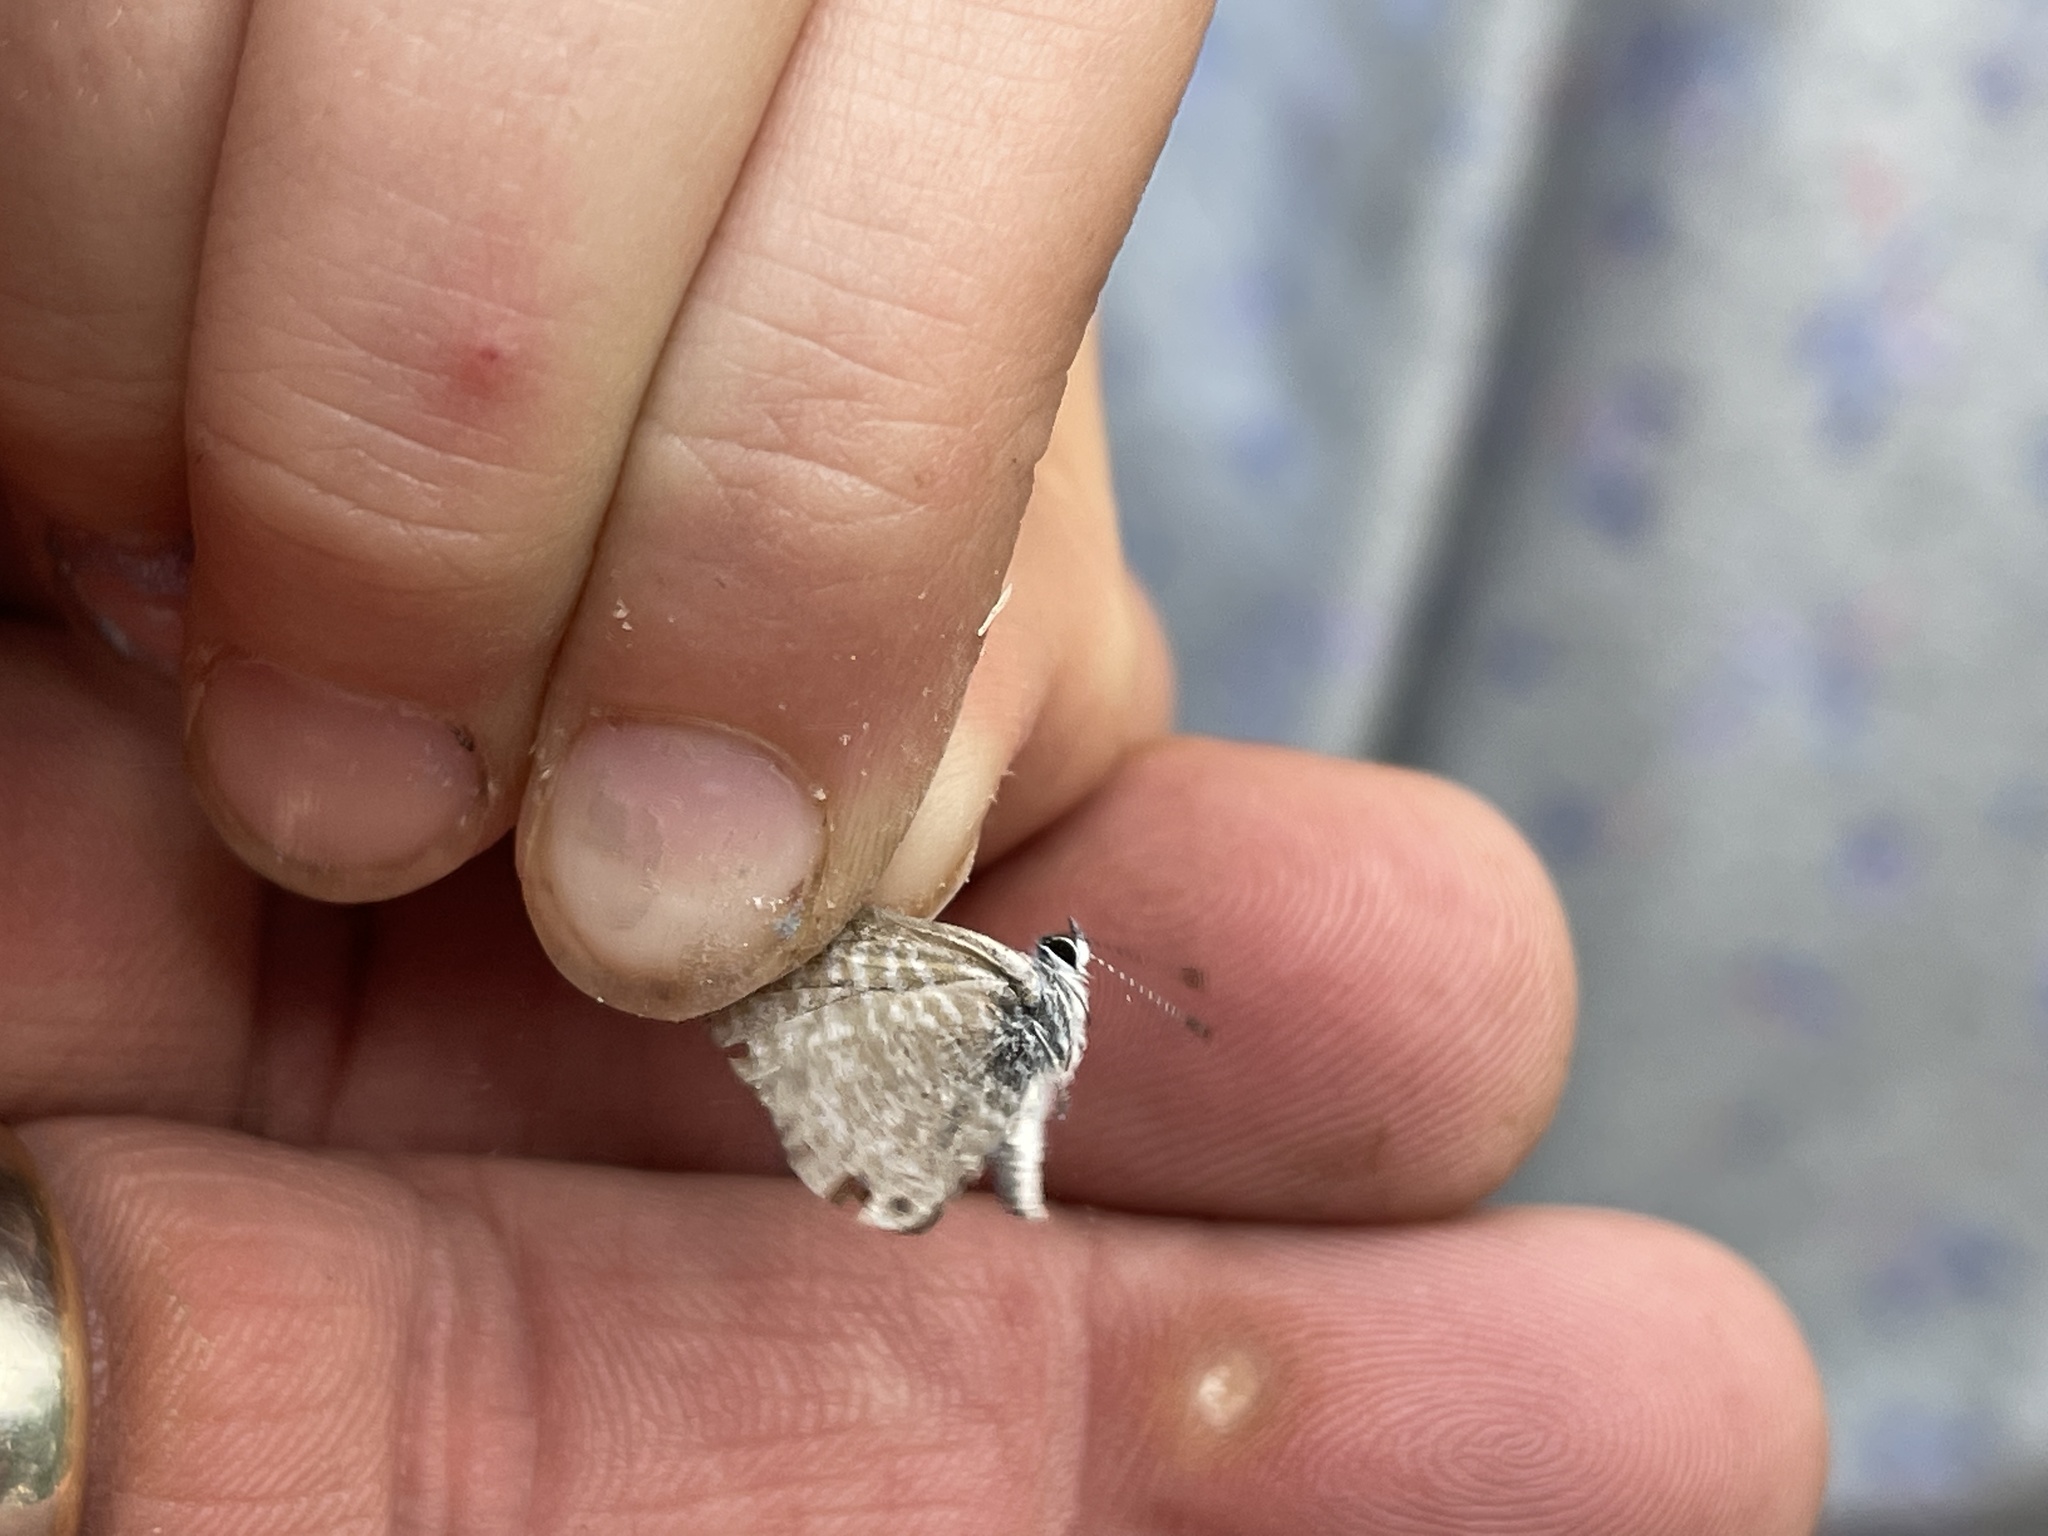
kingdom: Animalia
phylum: Arthropoda
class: Insecta
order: Lepidoptera
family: Lycaenidae
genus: Leptotes
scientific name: Leptotes marina
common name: Marine blue
